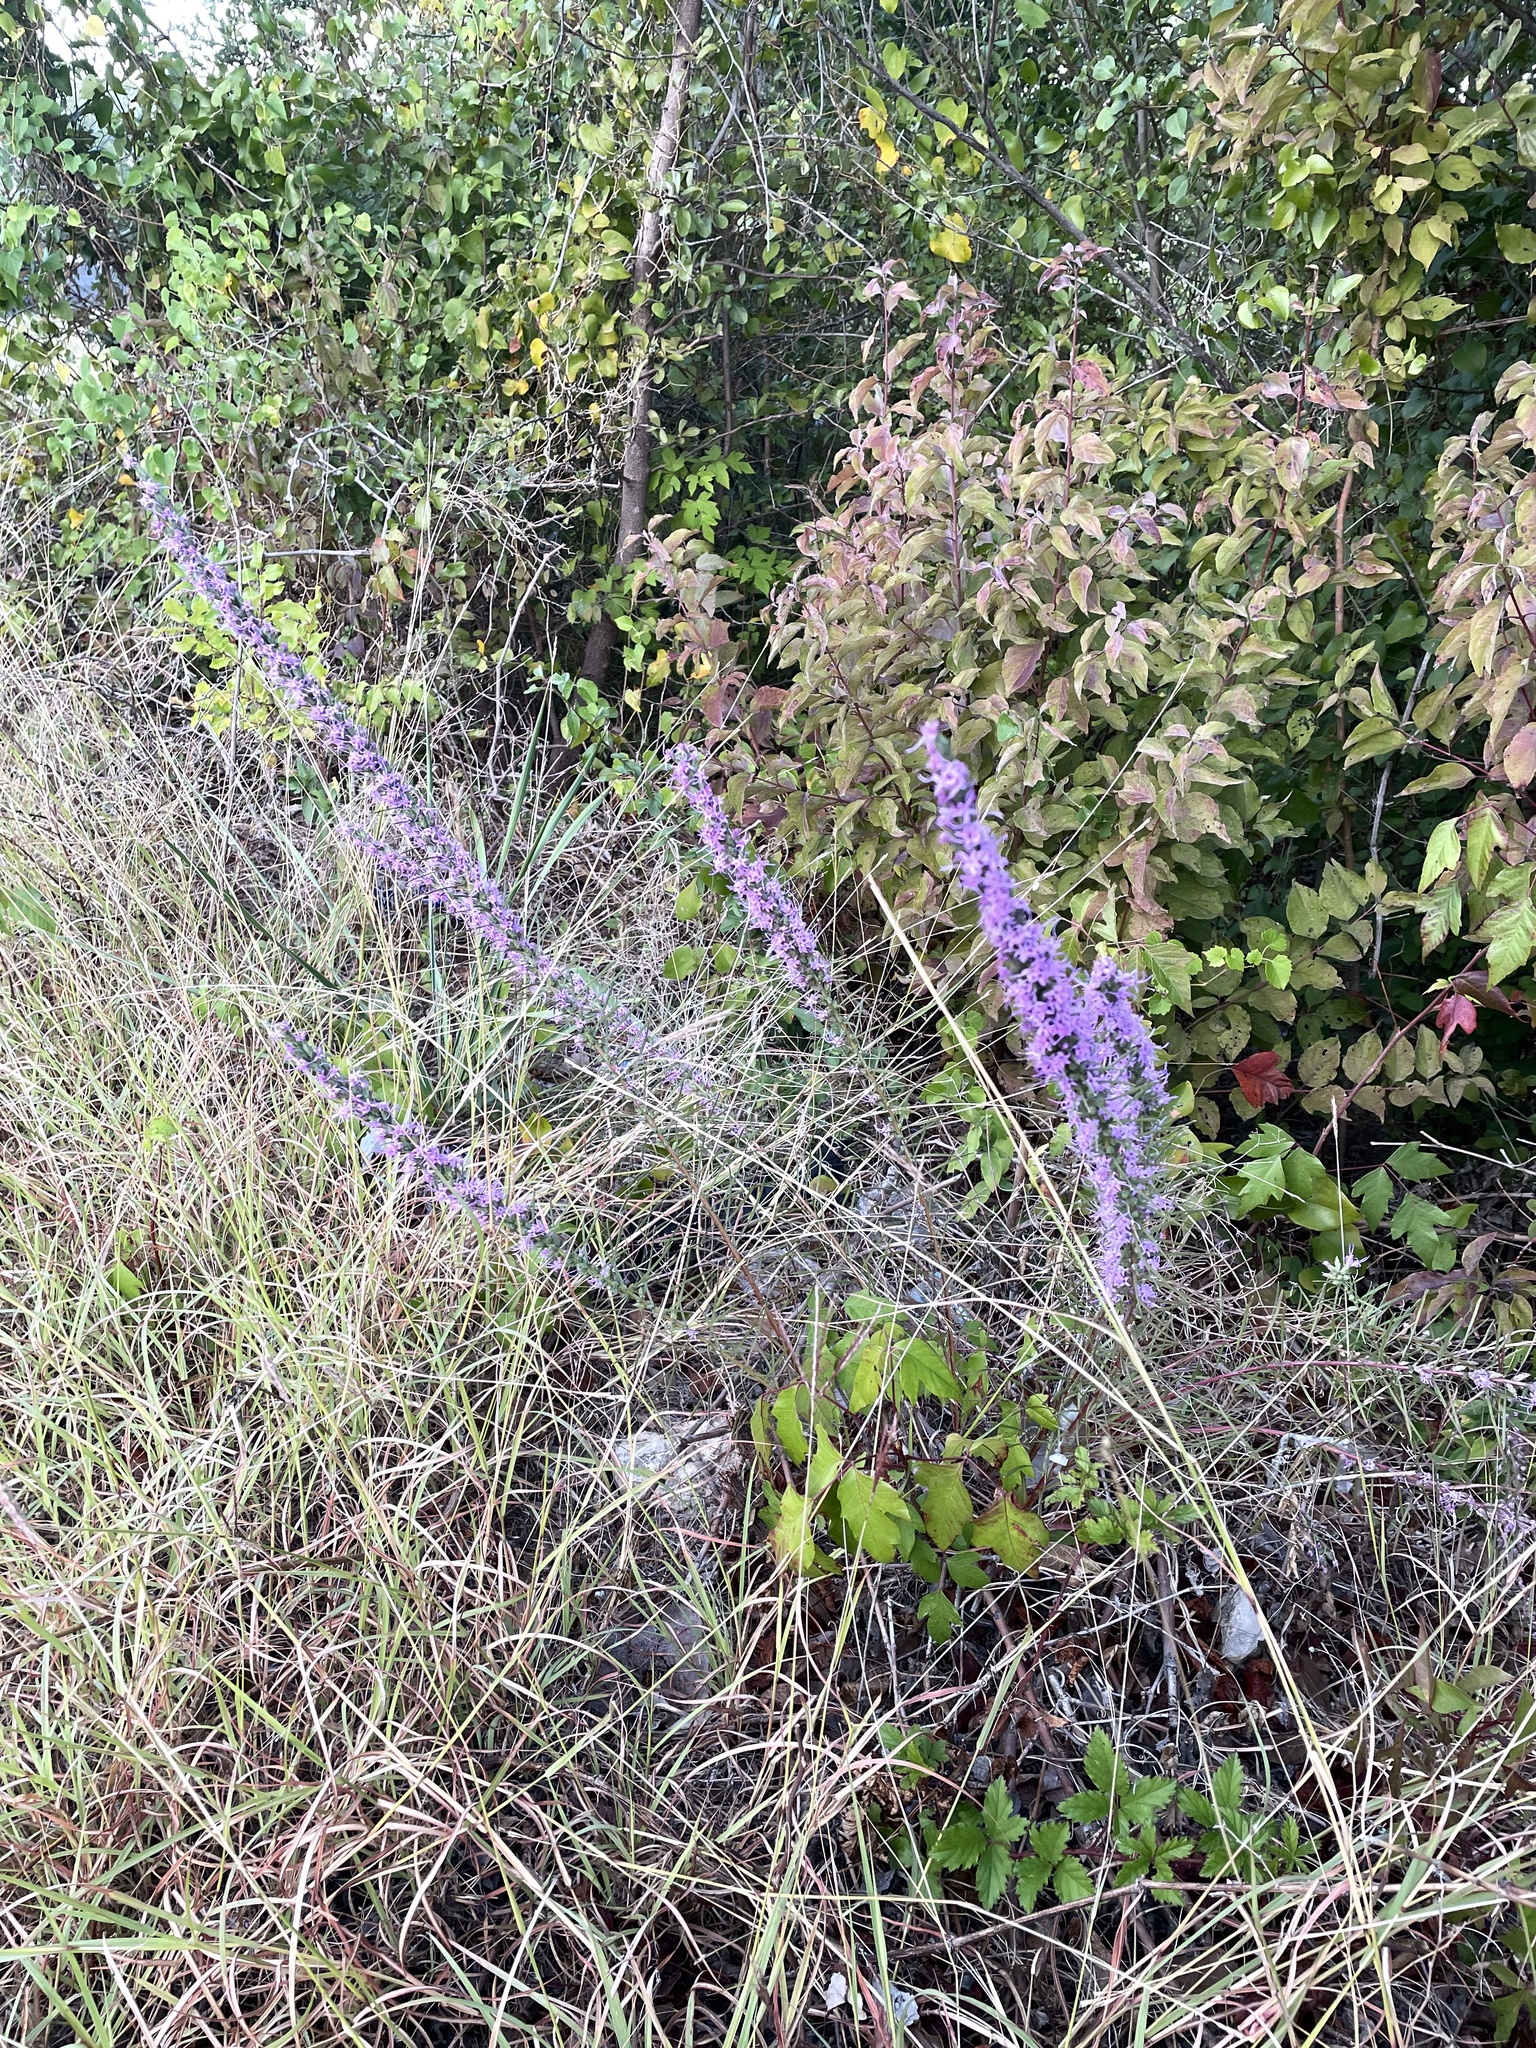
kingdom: Plantae
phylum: Tracheophyta
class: Magnoliopsida
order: Asterales
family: Asteraceae
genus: Liatris
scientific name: Liatris punctata
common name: Dotted gayfeather
